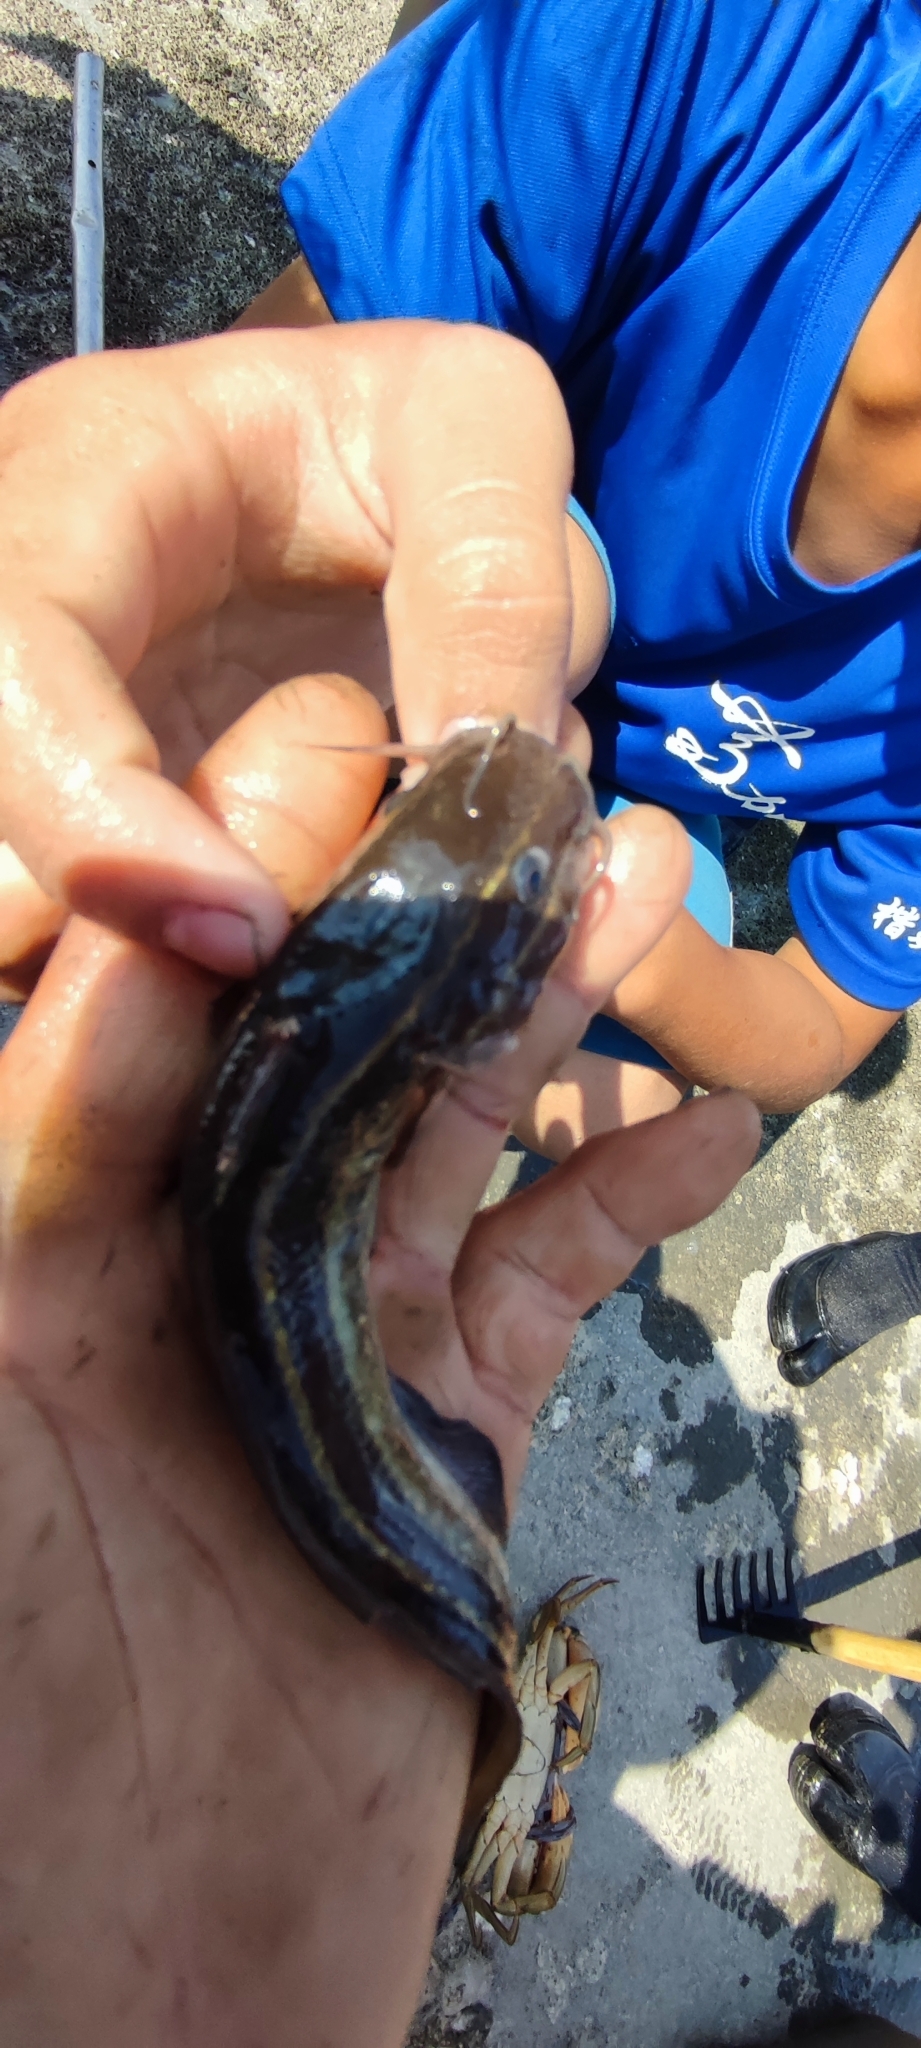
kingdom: Animalia
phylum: Chordata
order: Siluriformes
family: Plotosidae
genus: Plotosus
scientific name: Plotosus lineatus
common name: Striped eel catfish
